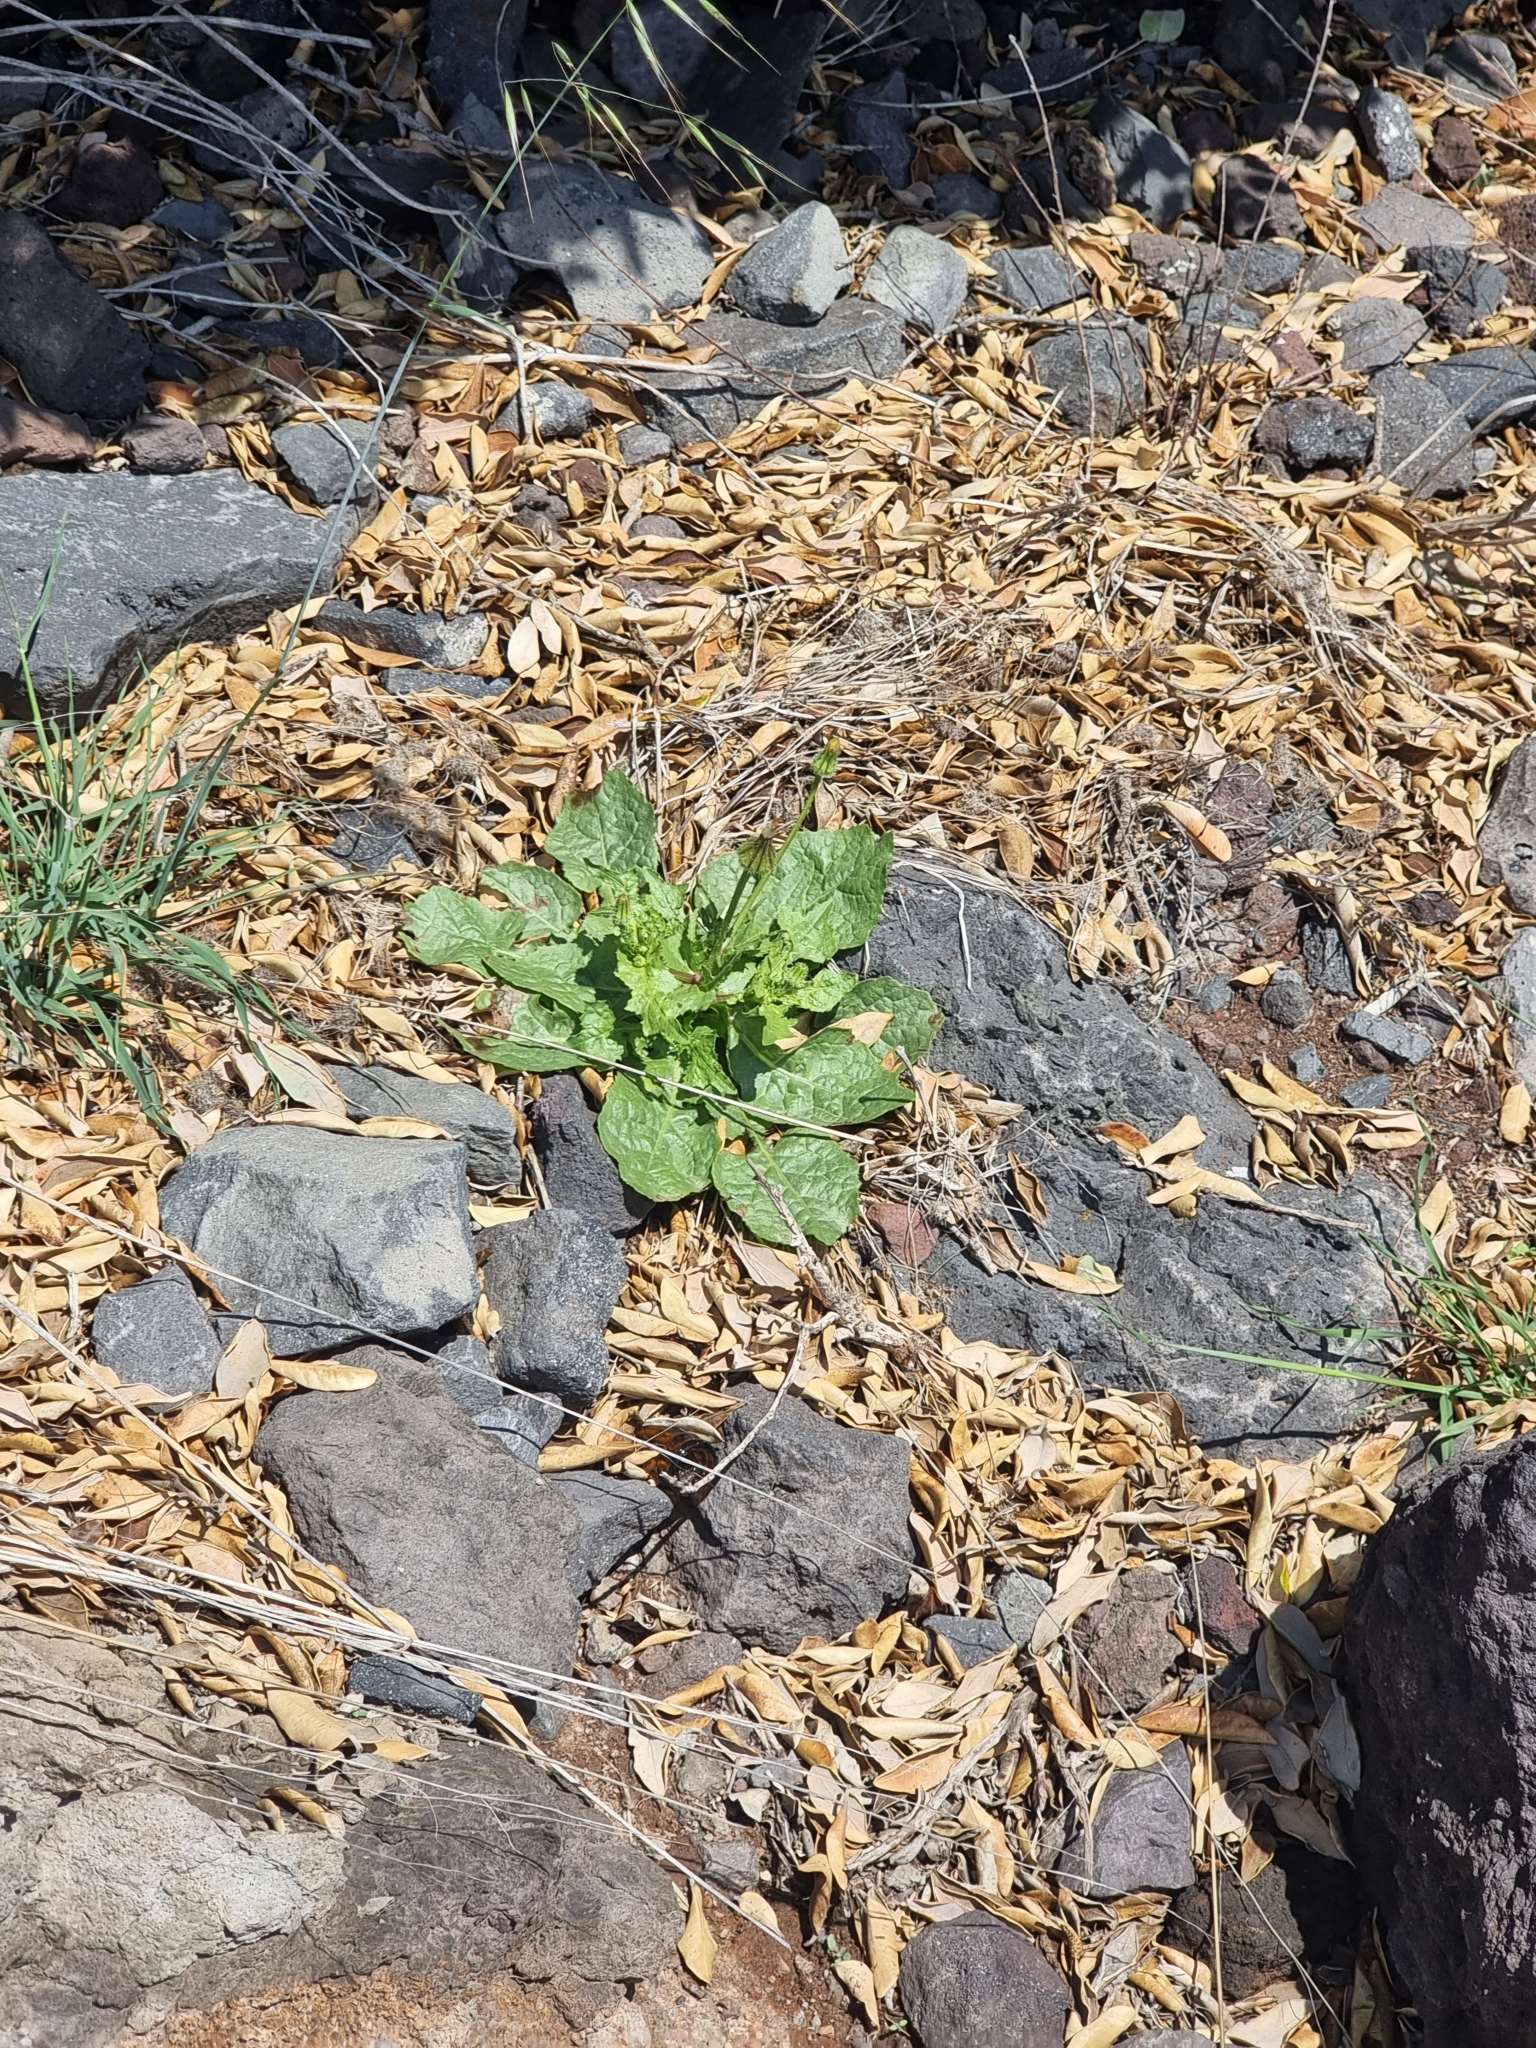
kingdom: Plantae
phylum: Tracheophyta
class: Magnoliopsida
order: Asterales
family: Asteraceae
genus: Urospermum
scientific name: Urospermum picroides
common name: False hawkbit
